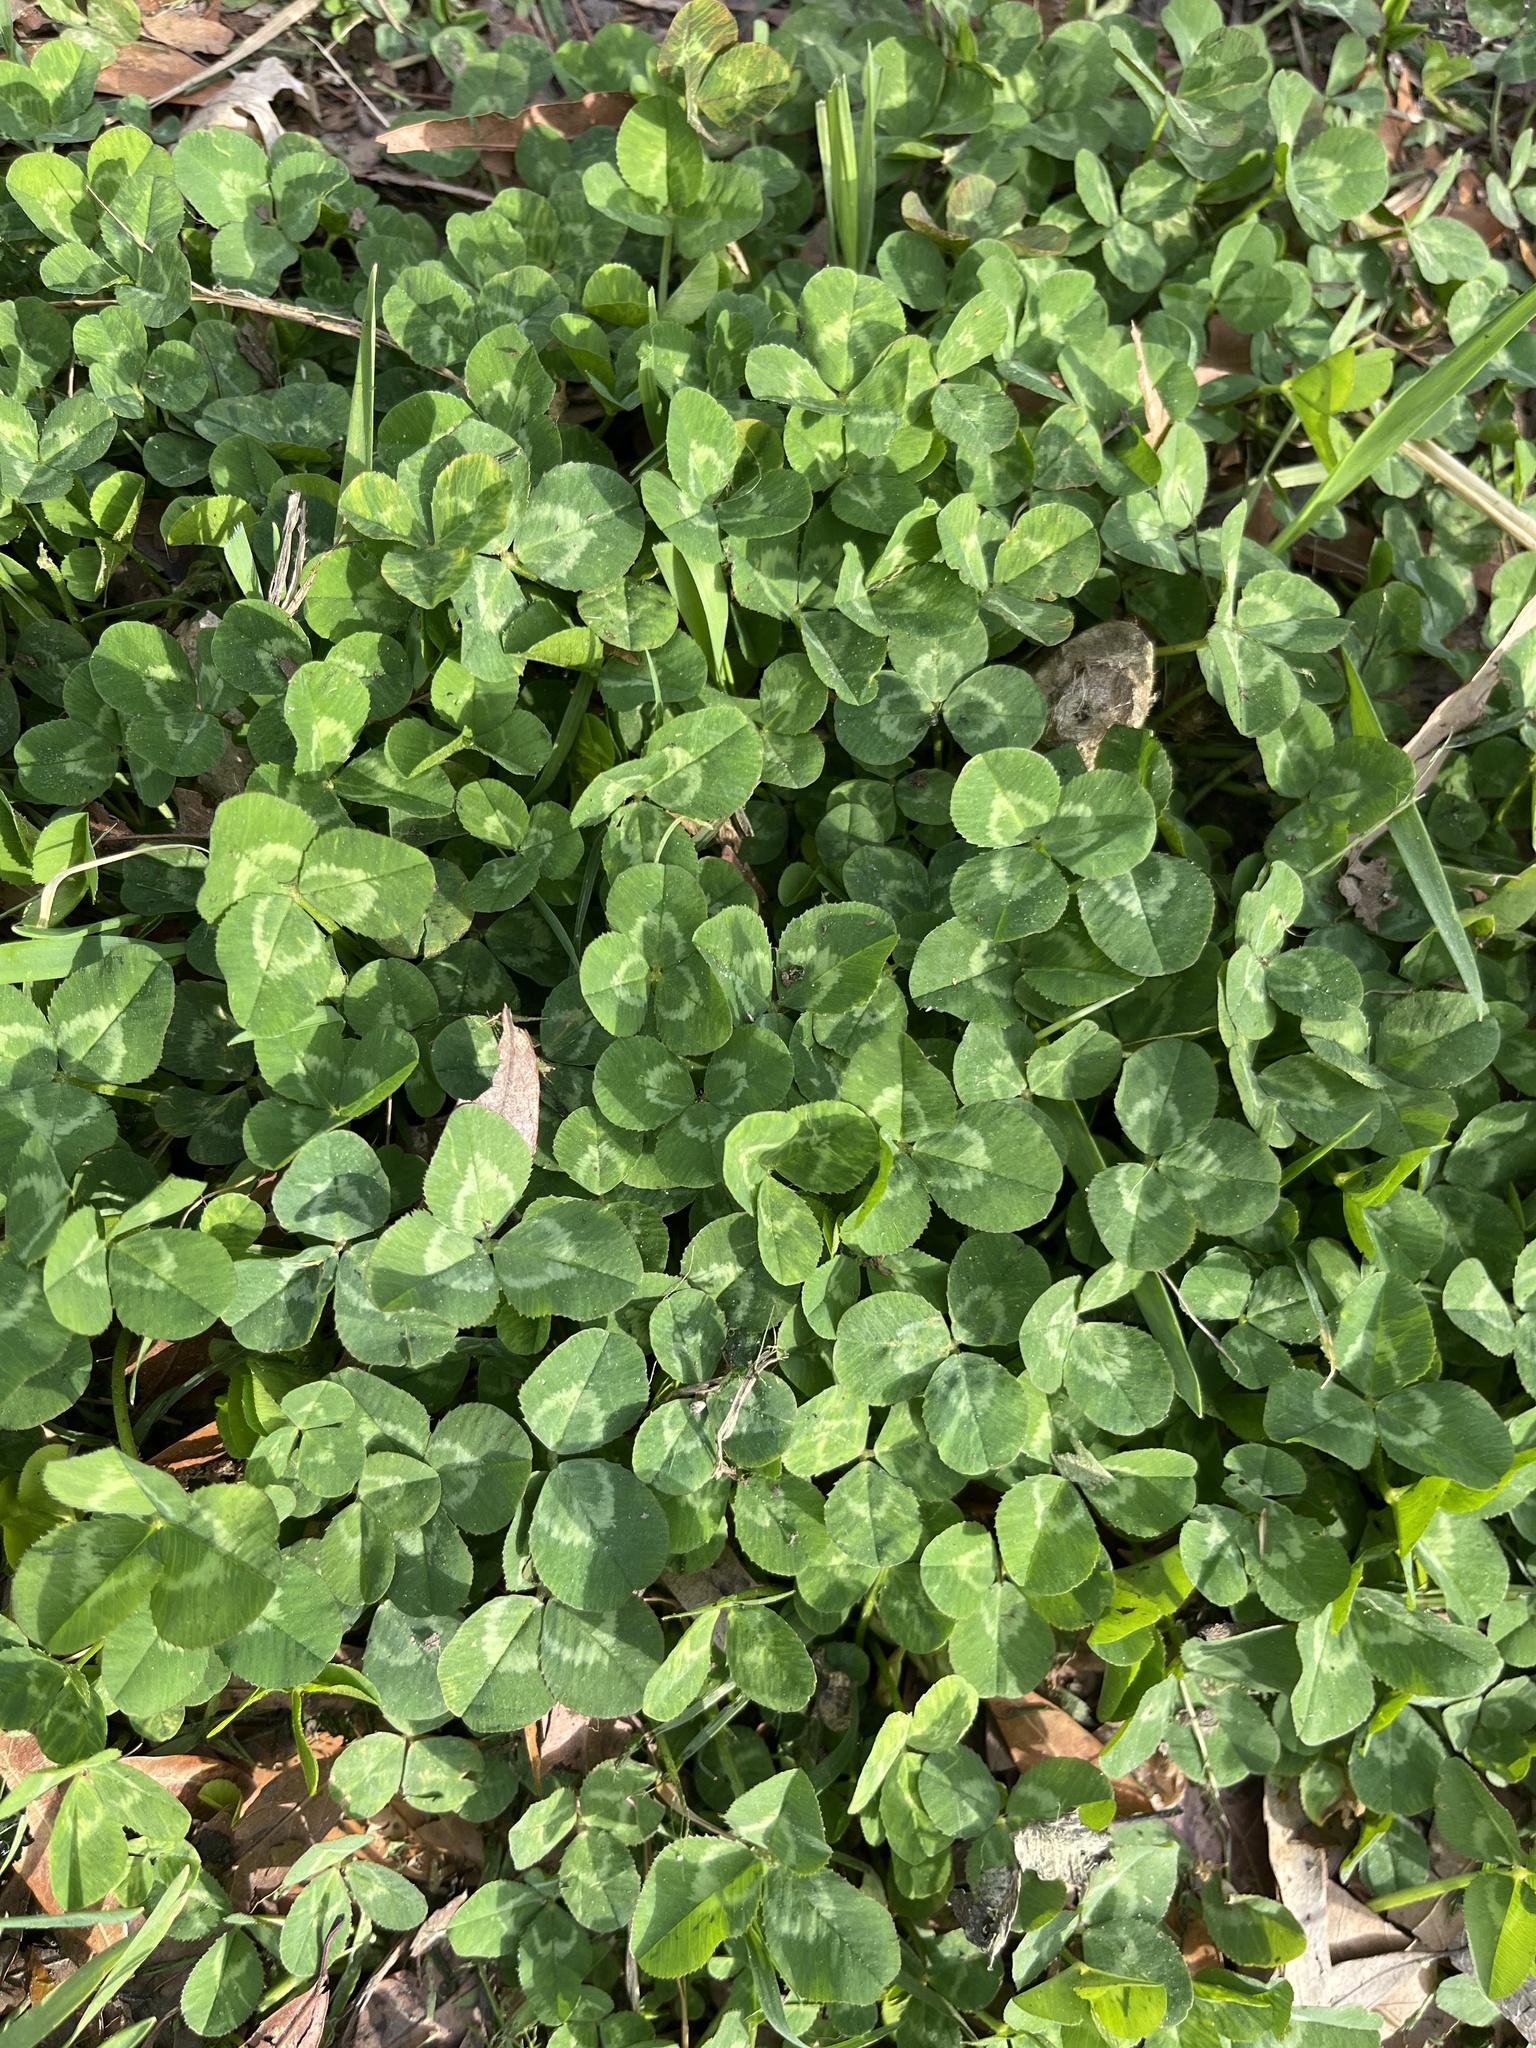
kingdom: Plantae
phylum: Tracheophyta
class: Magnoliopsida
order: Fabales
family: Fabaceae
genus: Trifolium
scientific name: Trifolium repens
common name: White clover
